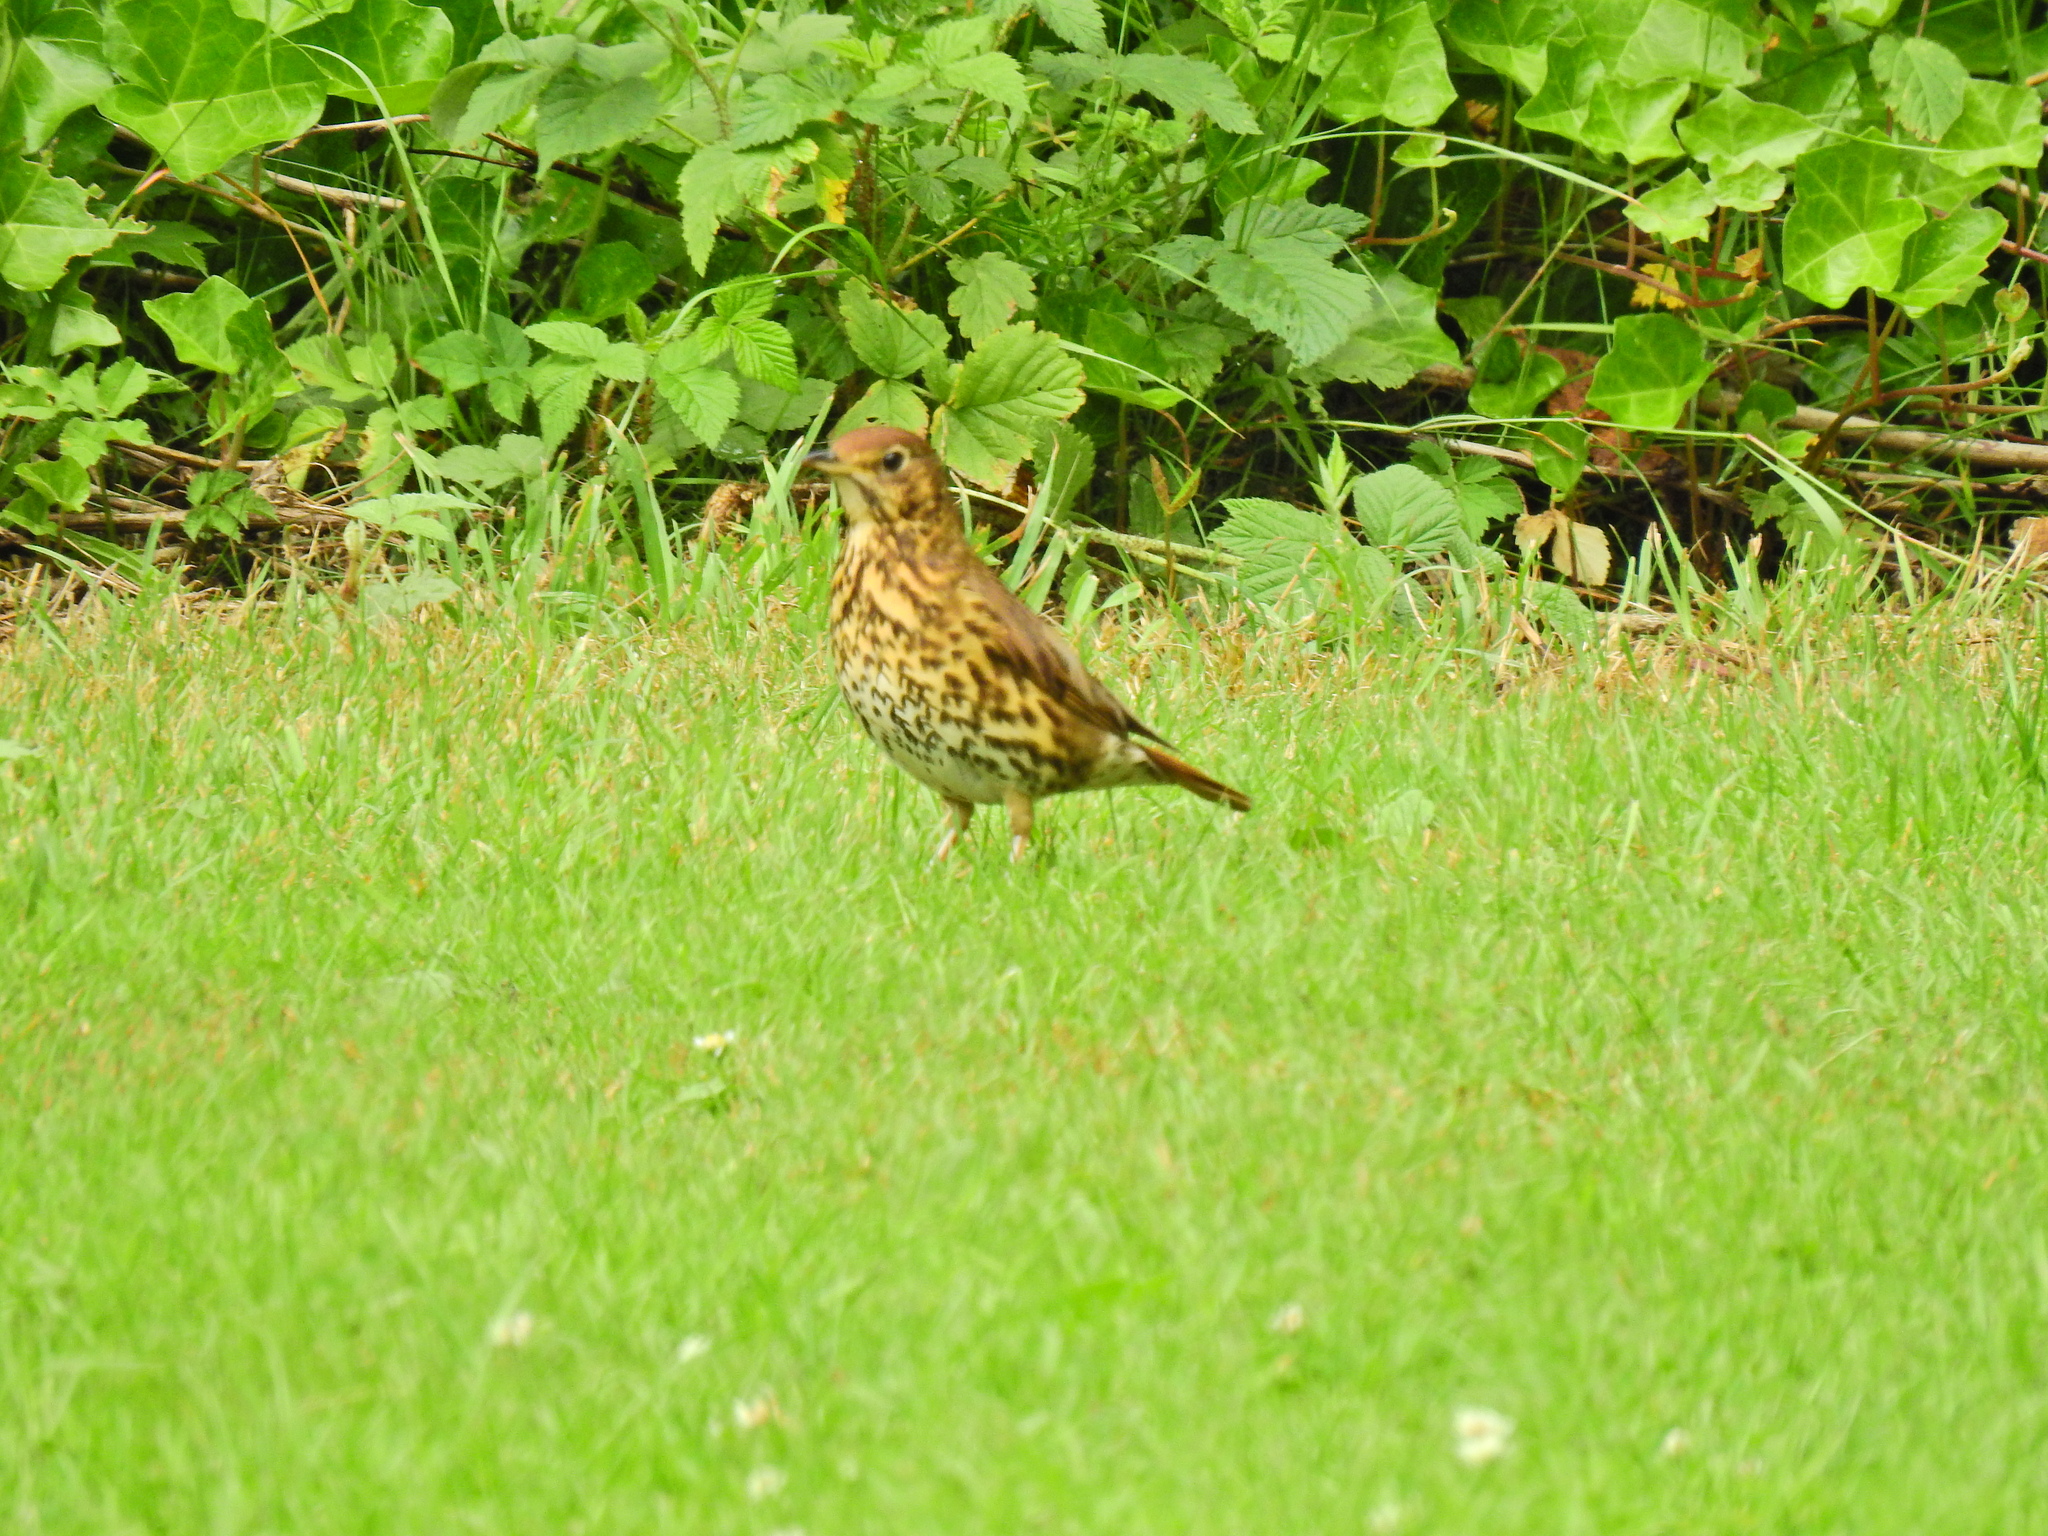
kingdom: Animalia
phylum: Chordata
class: Aves
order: Passeriformes
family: Turdidae
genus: Turdus
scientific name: Turdus philomelos
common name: Song thrush
